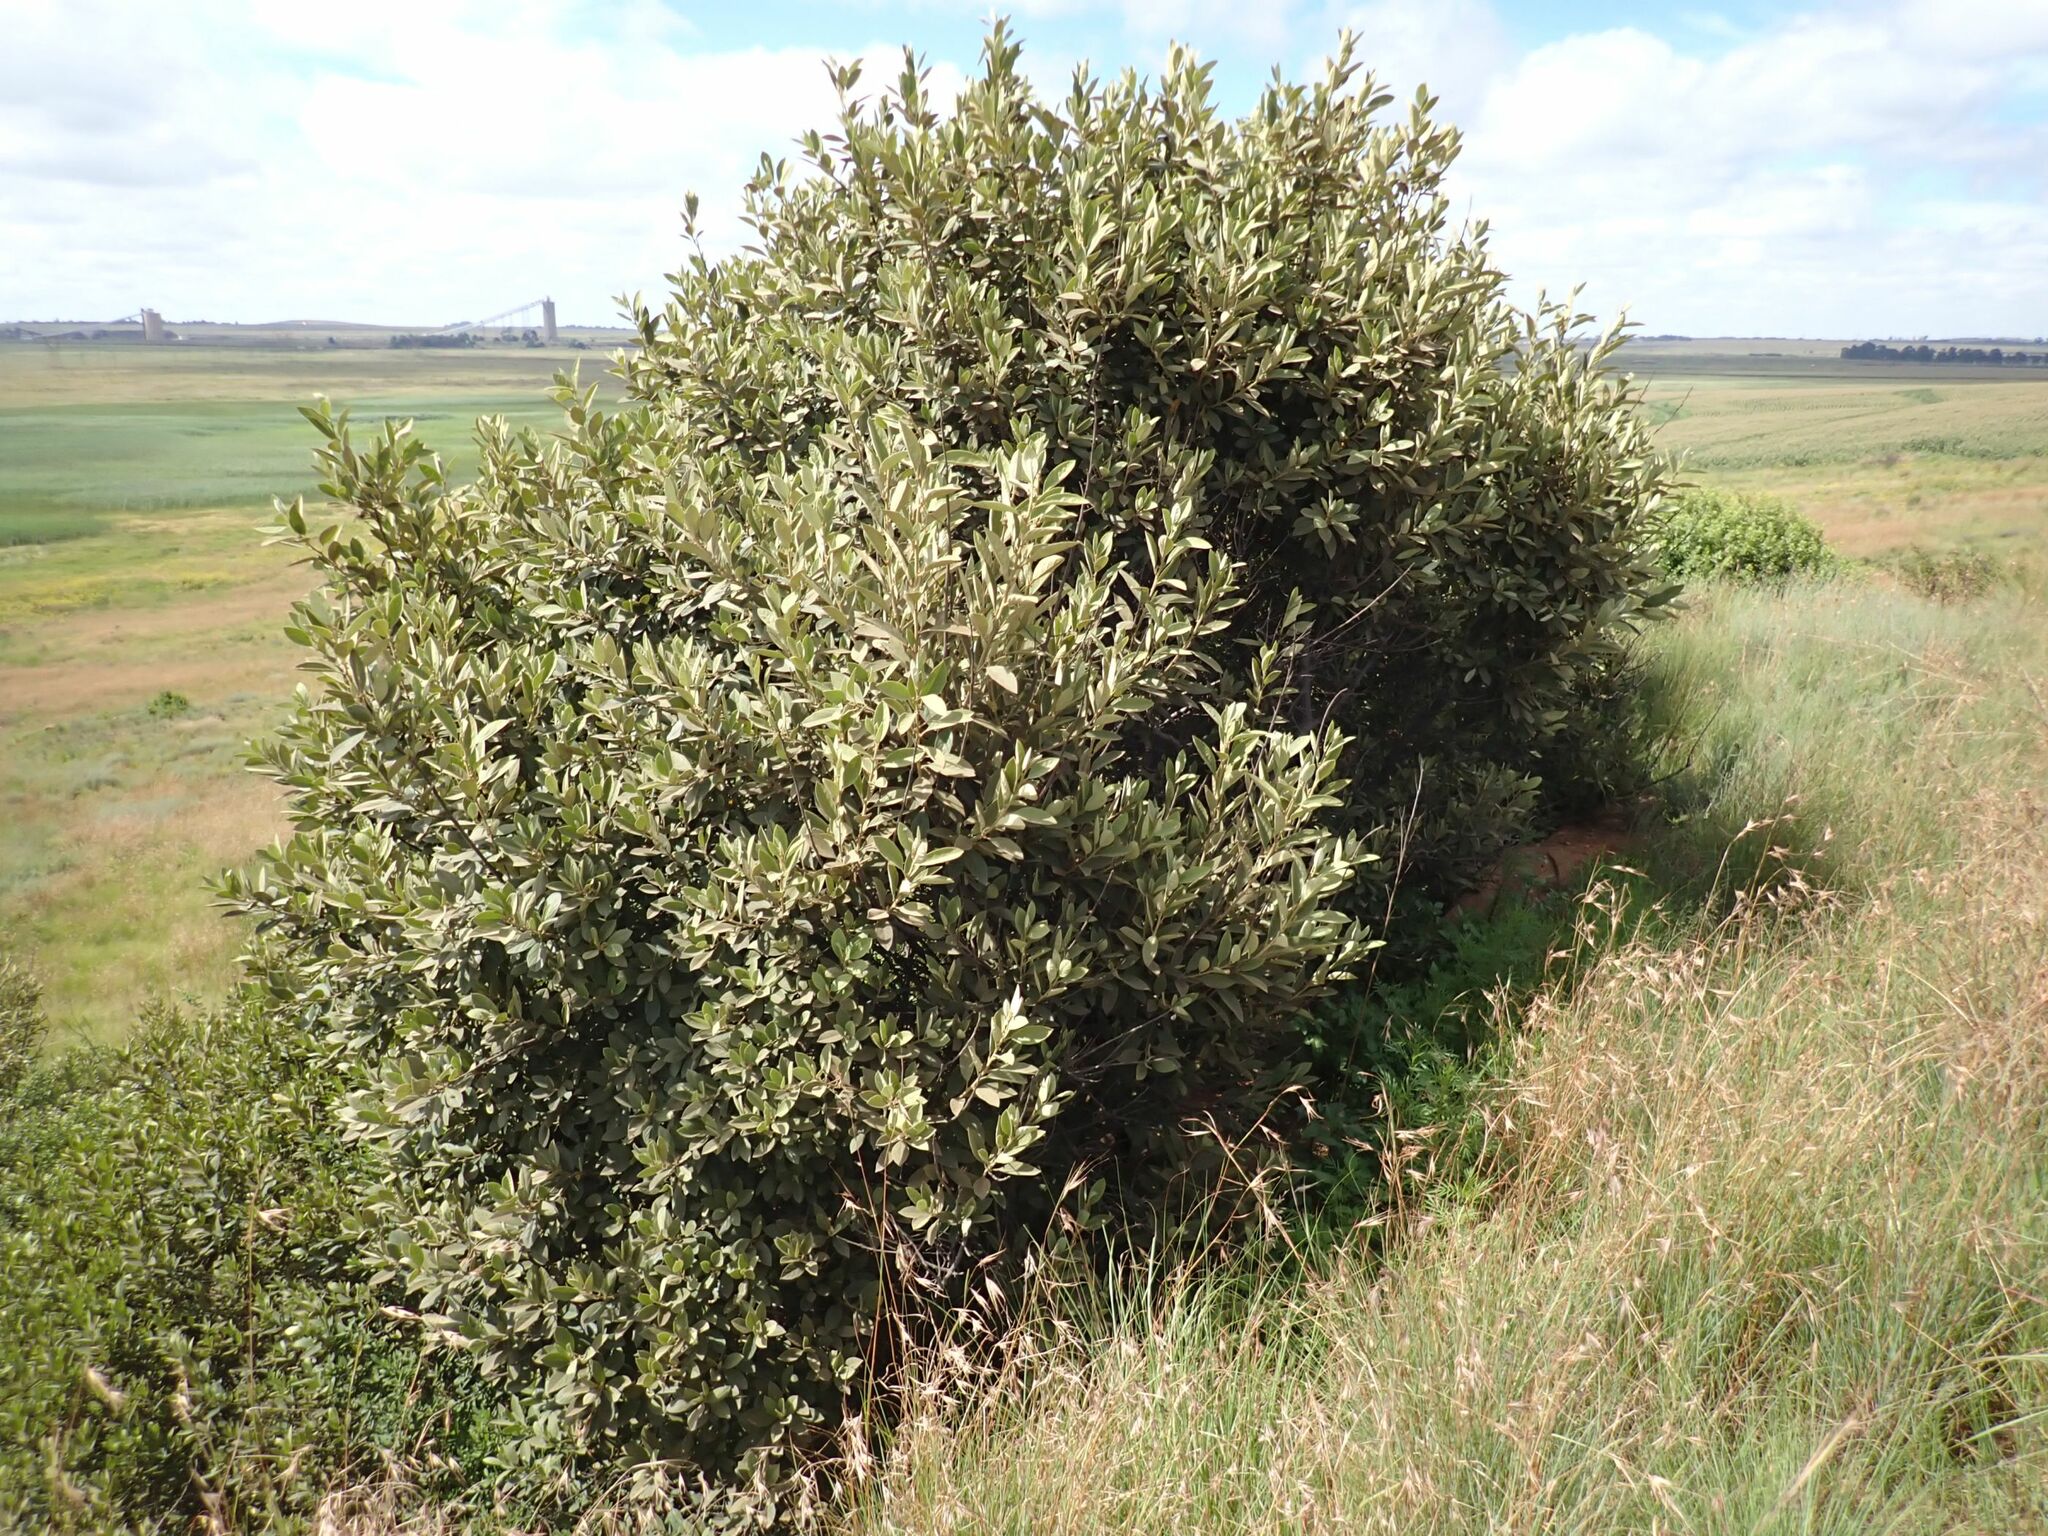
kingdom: Plantae
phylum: Tracheophyta
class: Magnoliopsida
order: Malpighiales
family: Achariaceae
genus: Kiggelaria
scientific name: Kiggelaria africana
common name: Wild peach
